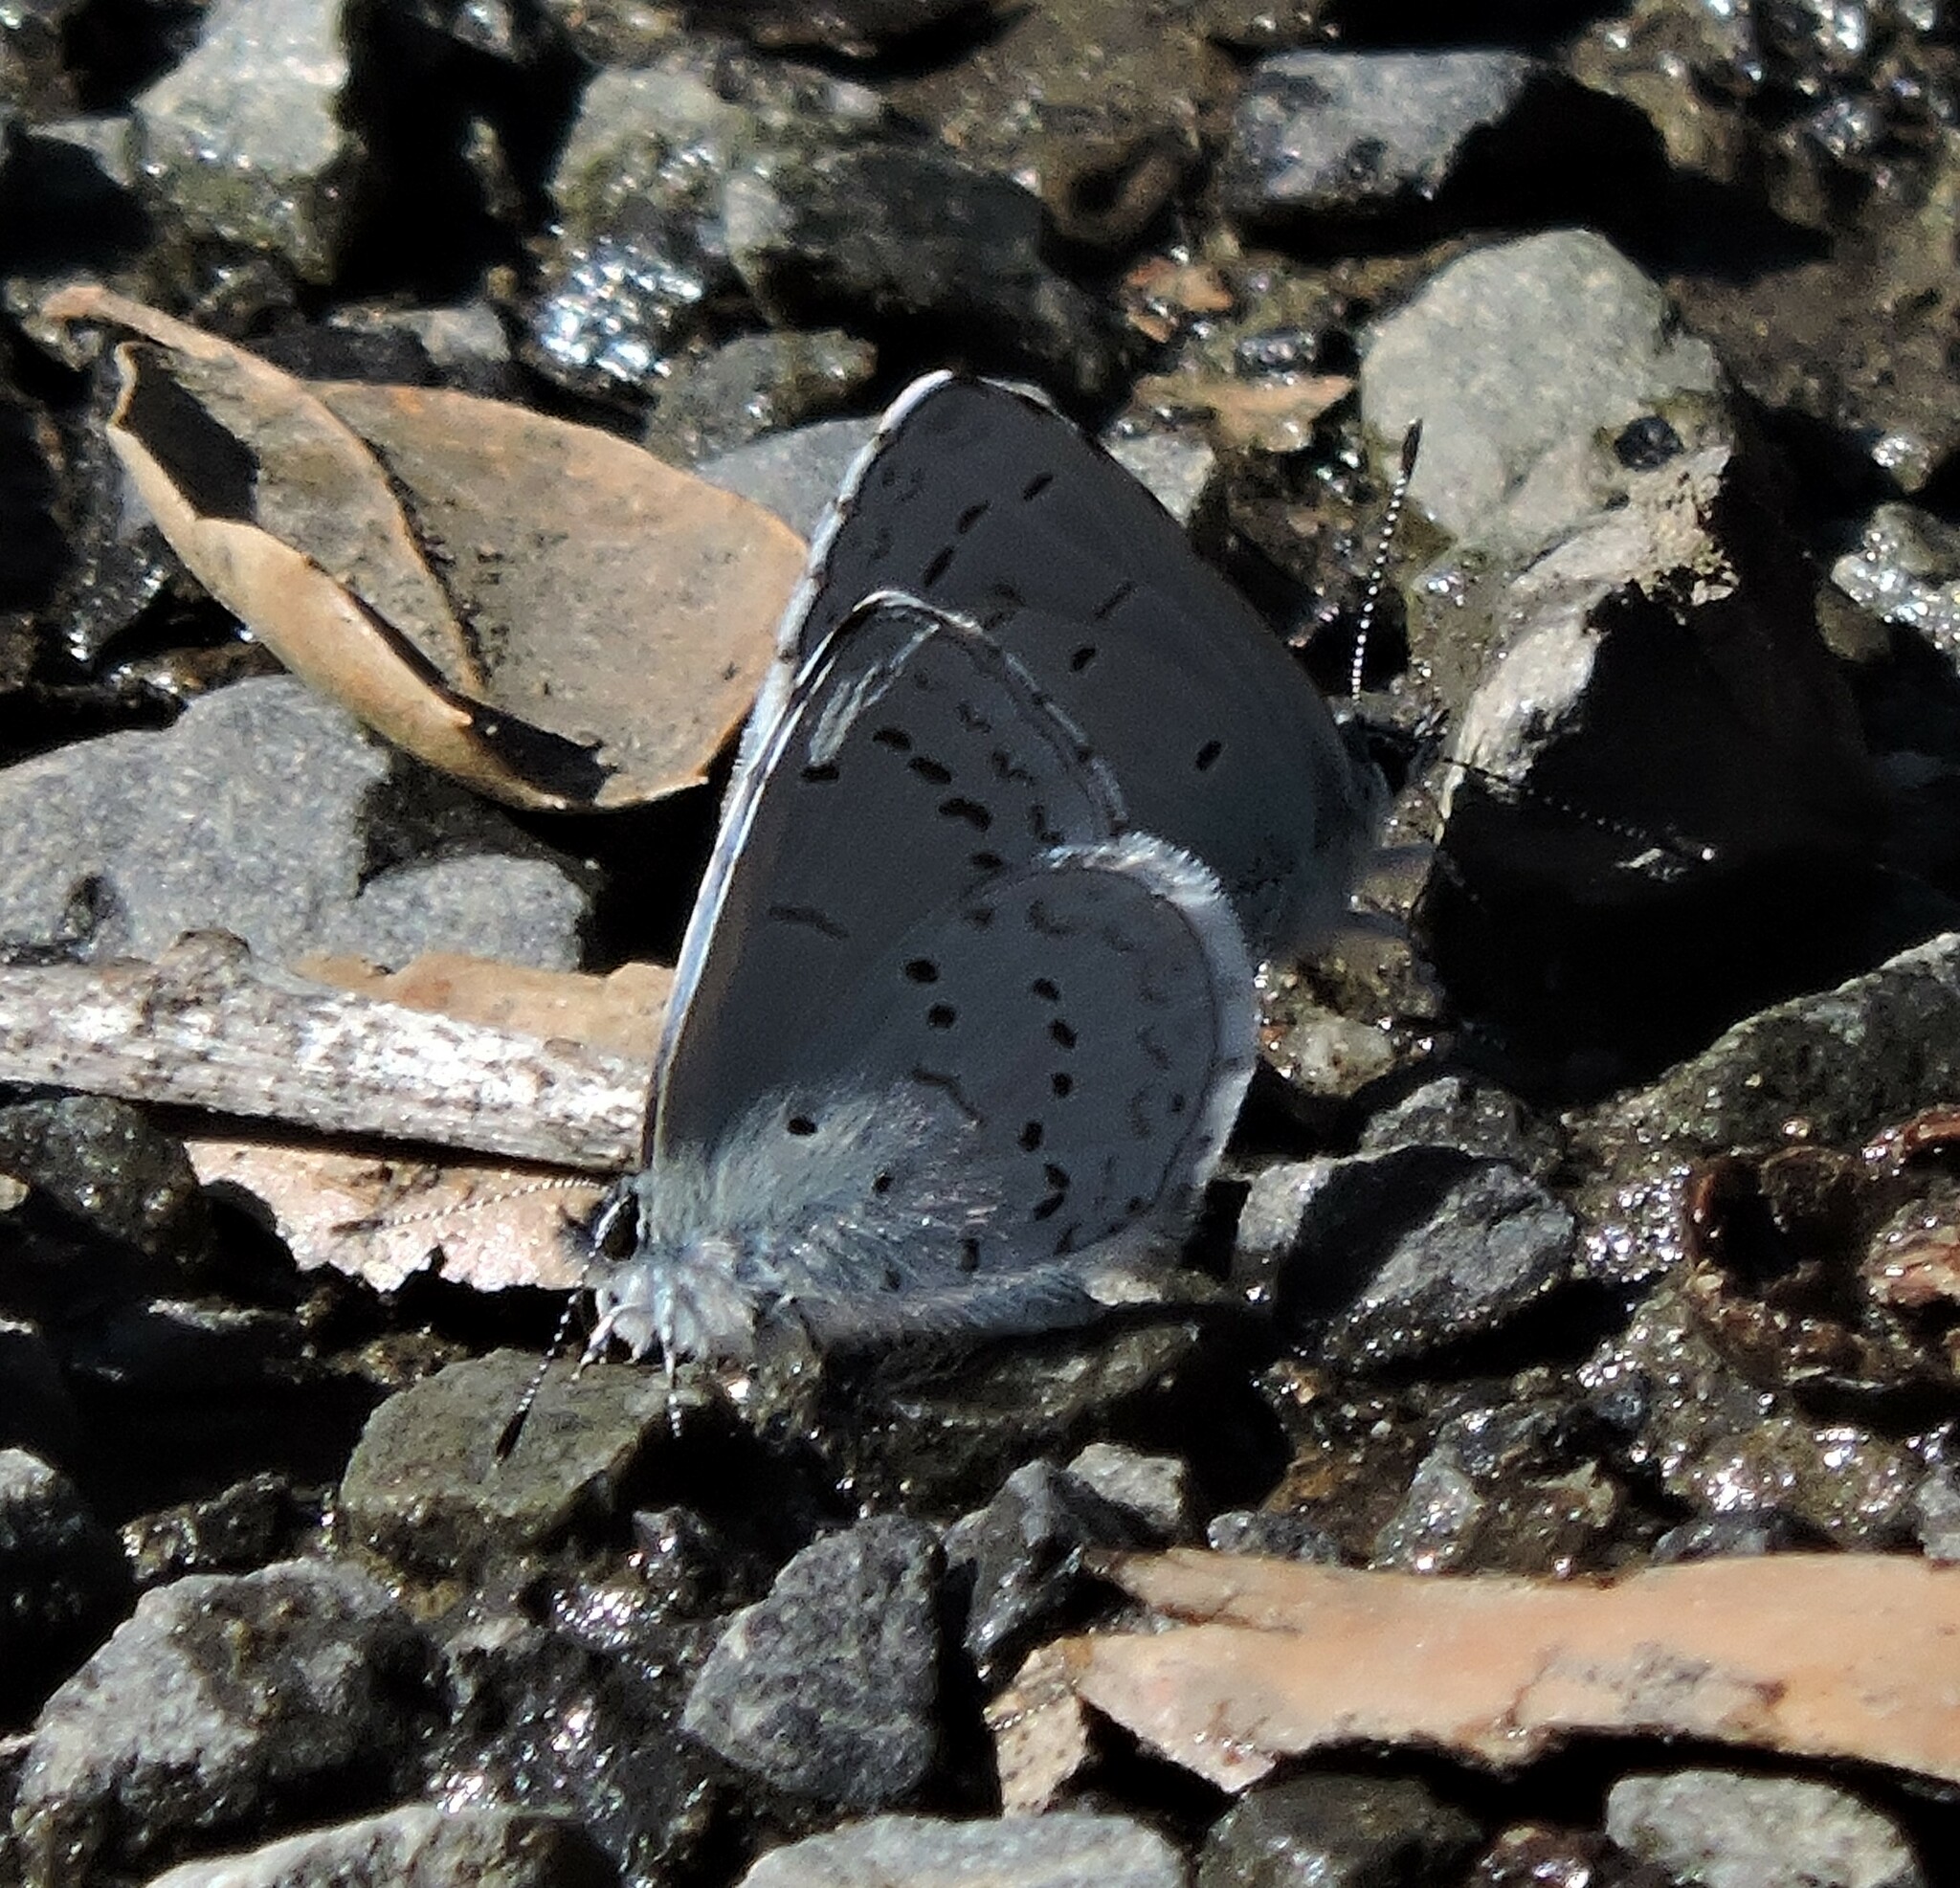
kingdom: Animalia
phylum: Arthropoda
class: Insecta
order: Lepidoptera
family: Lycaenidae
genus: Celastrina
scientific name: Celastrina ladon
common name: Spring azure
